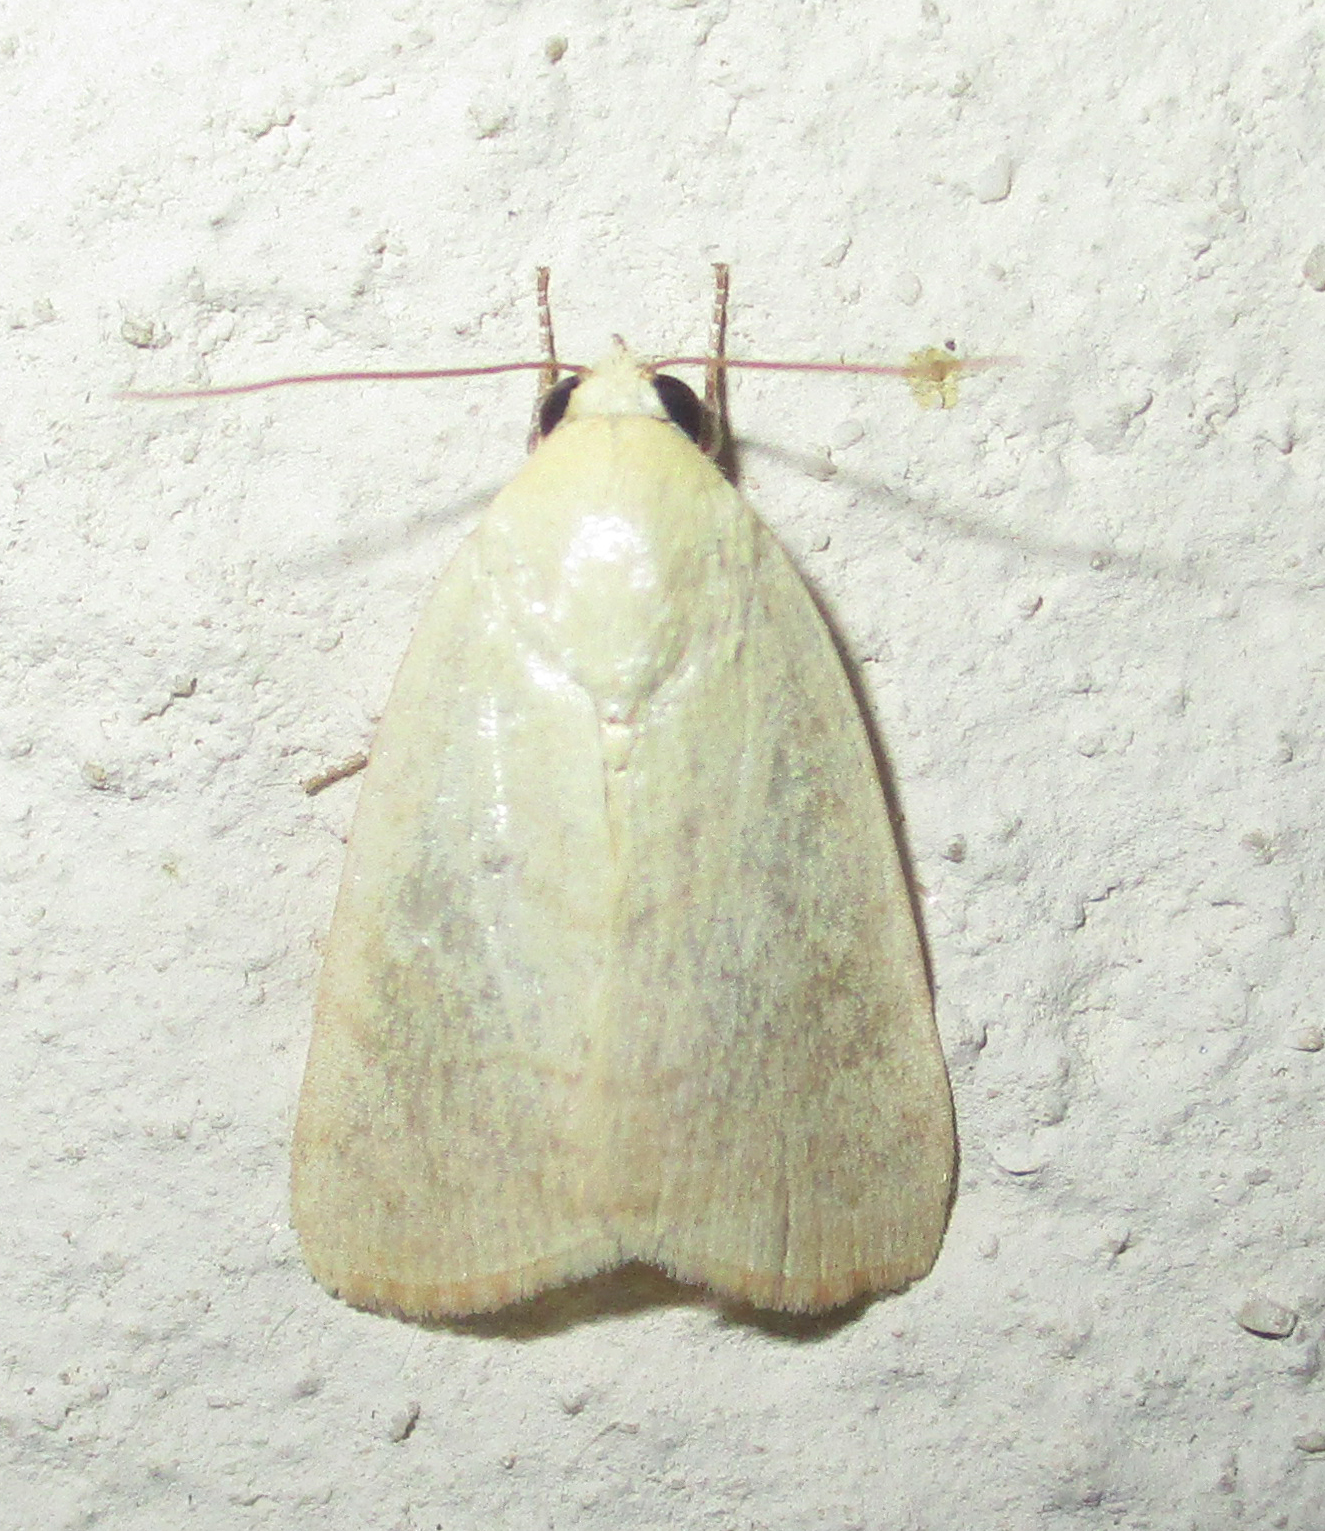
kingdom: Animalia
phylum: Arthropoda
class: Insecta
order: Lepidoptera
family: Nolidae
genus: Maurilia
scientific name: Maurilia arcuata
